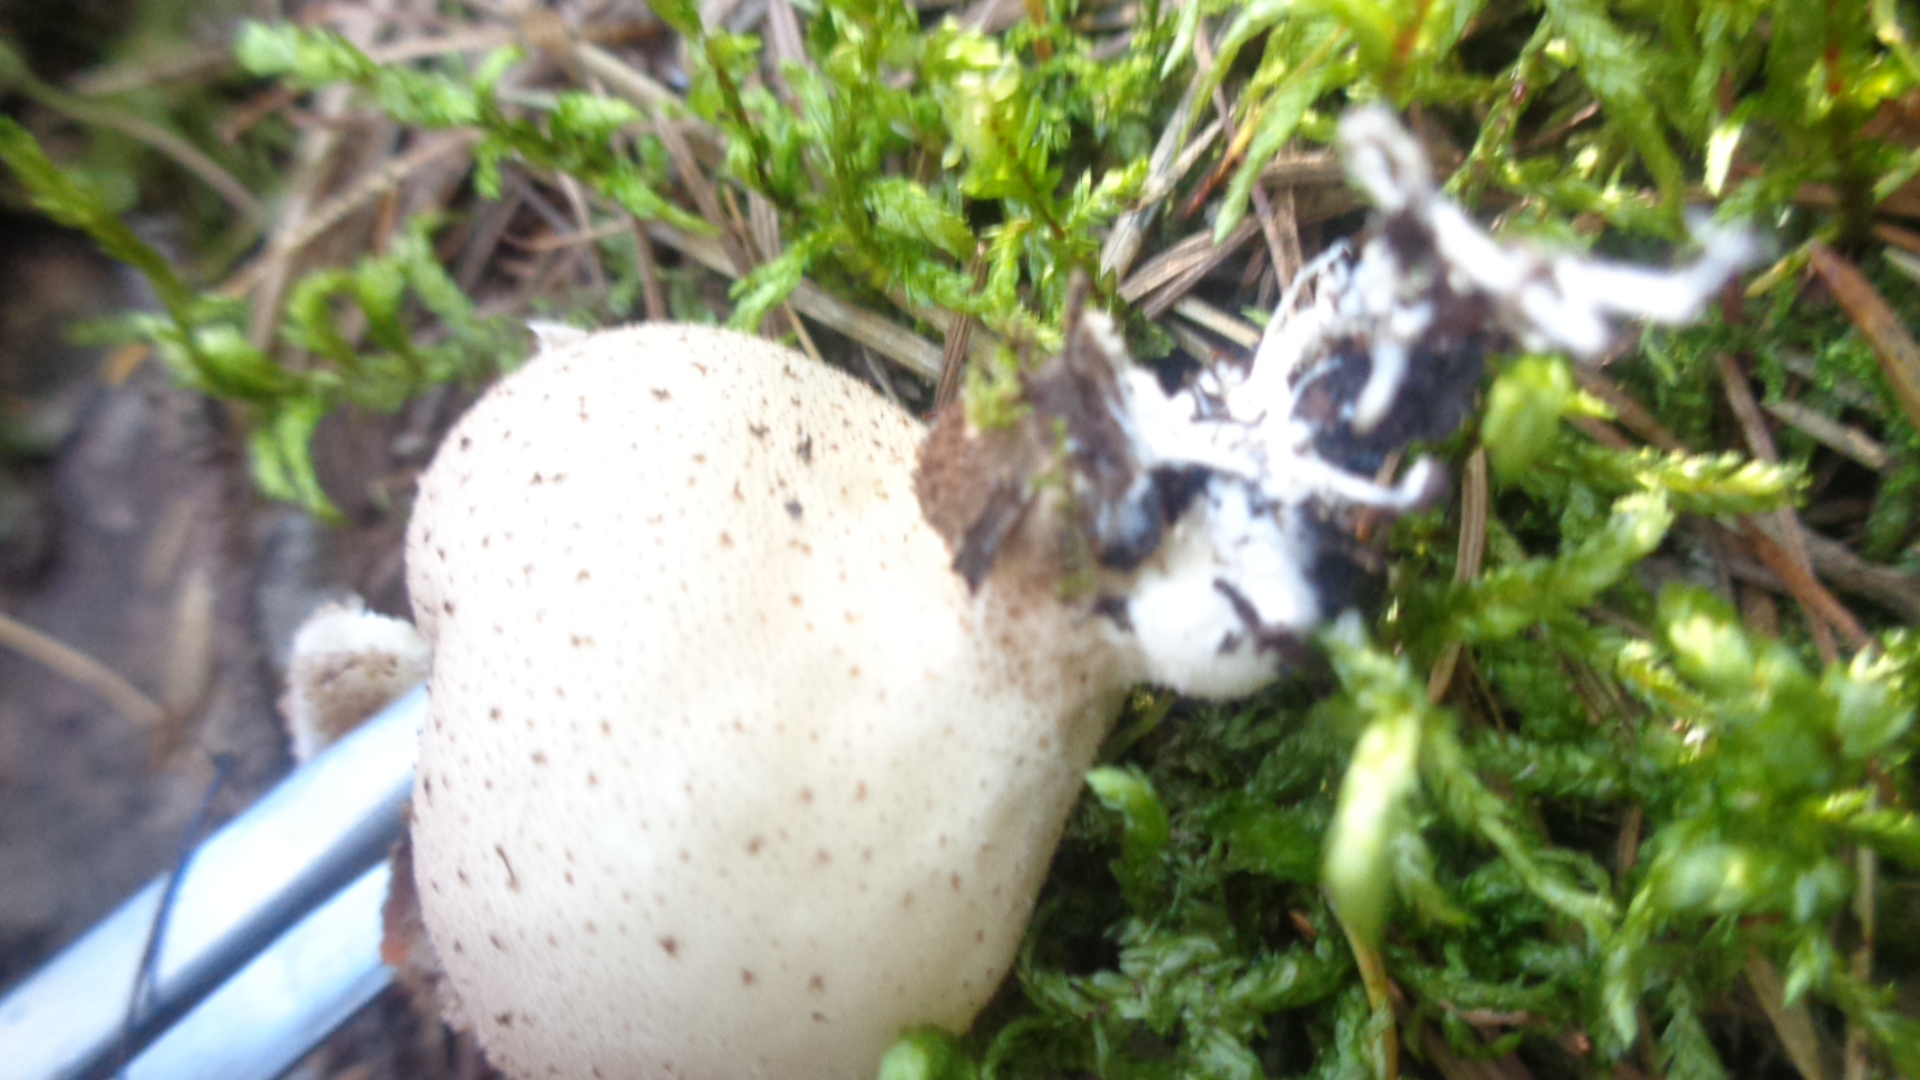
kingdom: Fungi
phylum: Basidiomycota
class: Agaricomycetes
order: Agaricales
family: Lycoperdaceae
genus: Apioperdon
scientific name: Apioperdon pyriforme
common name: Pear-shaped puffball
